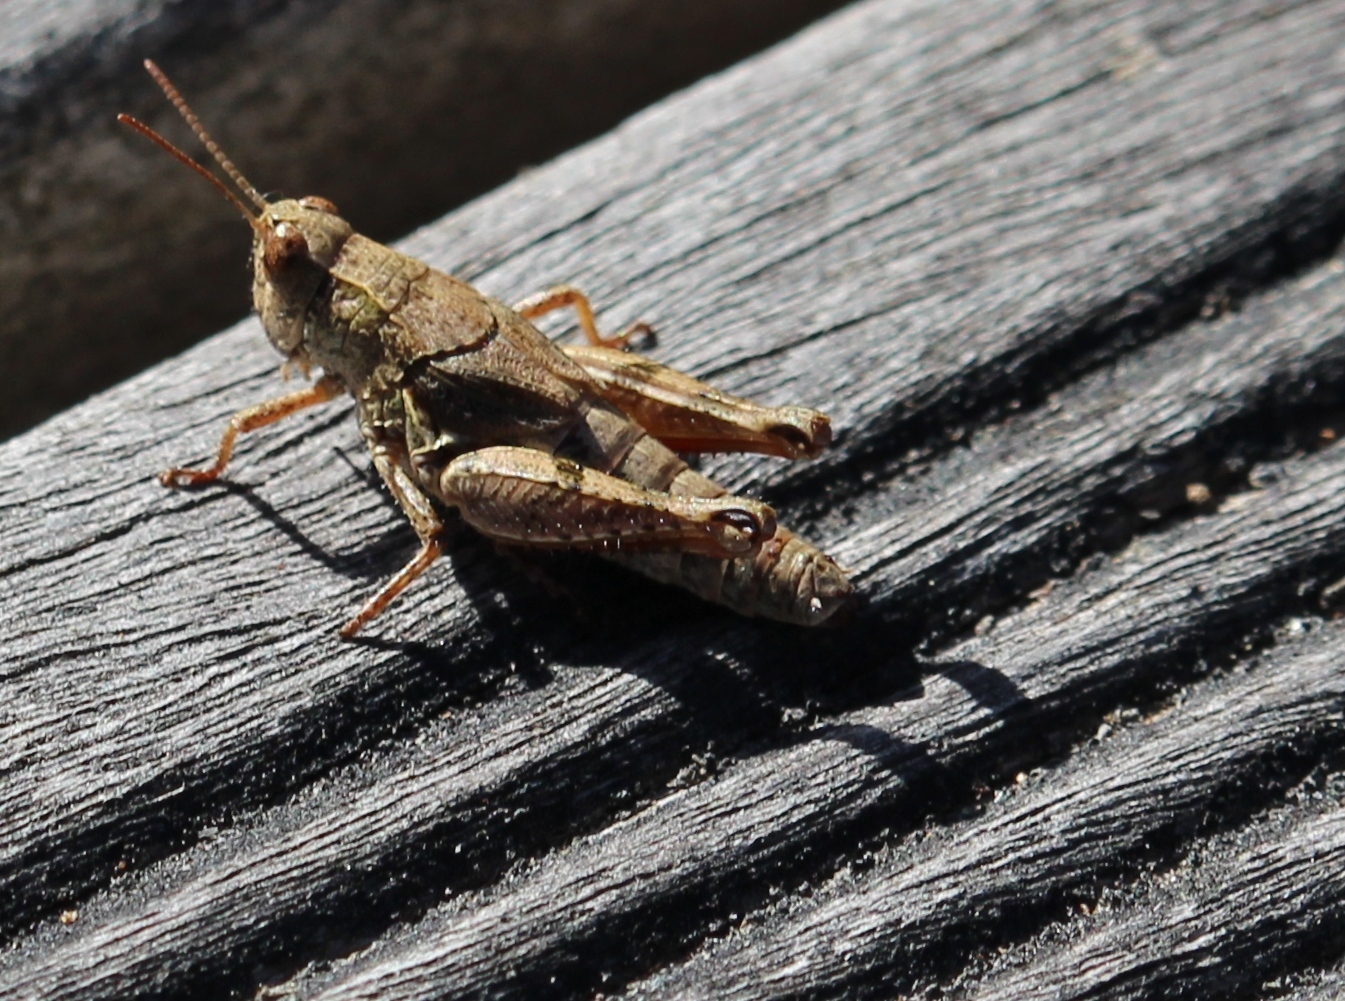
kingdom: Animalia
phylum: Arthropoda
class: Insecta
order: Orthoptera
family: Acrididae
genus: Phaulacridium
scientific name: Phaulacridium marginale
